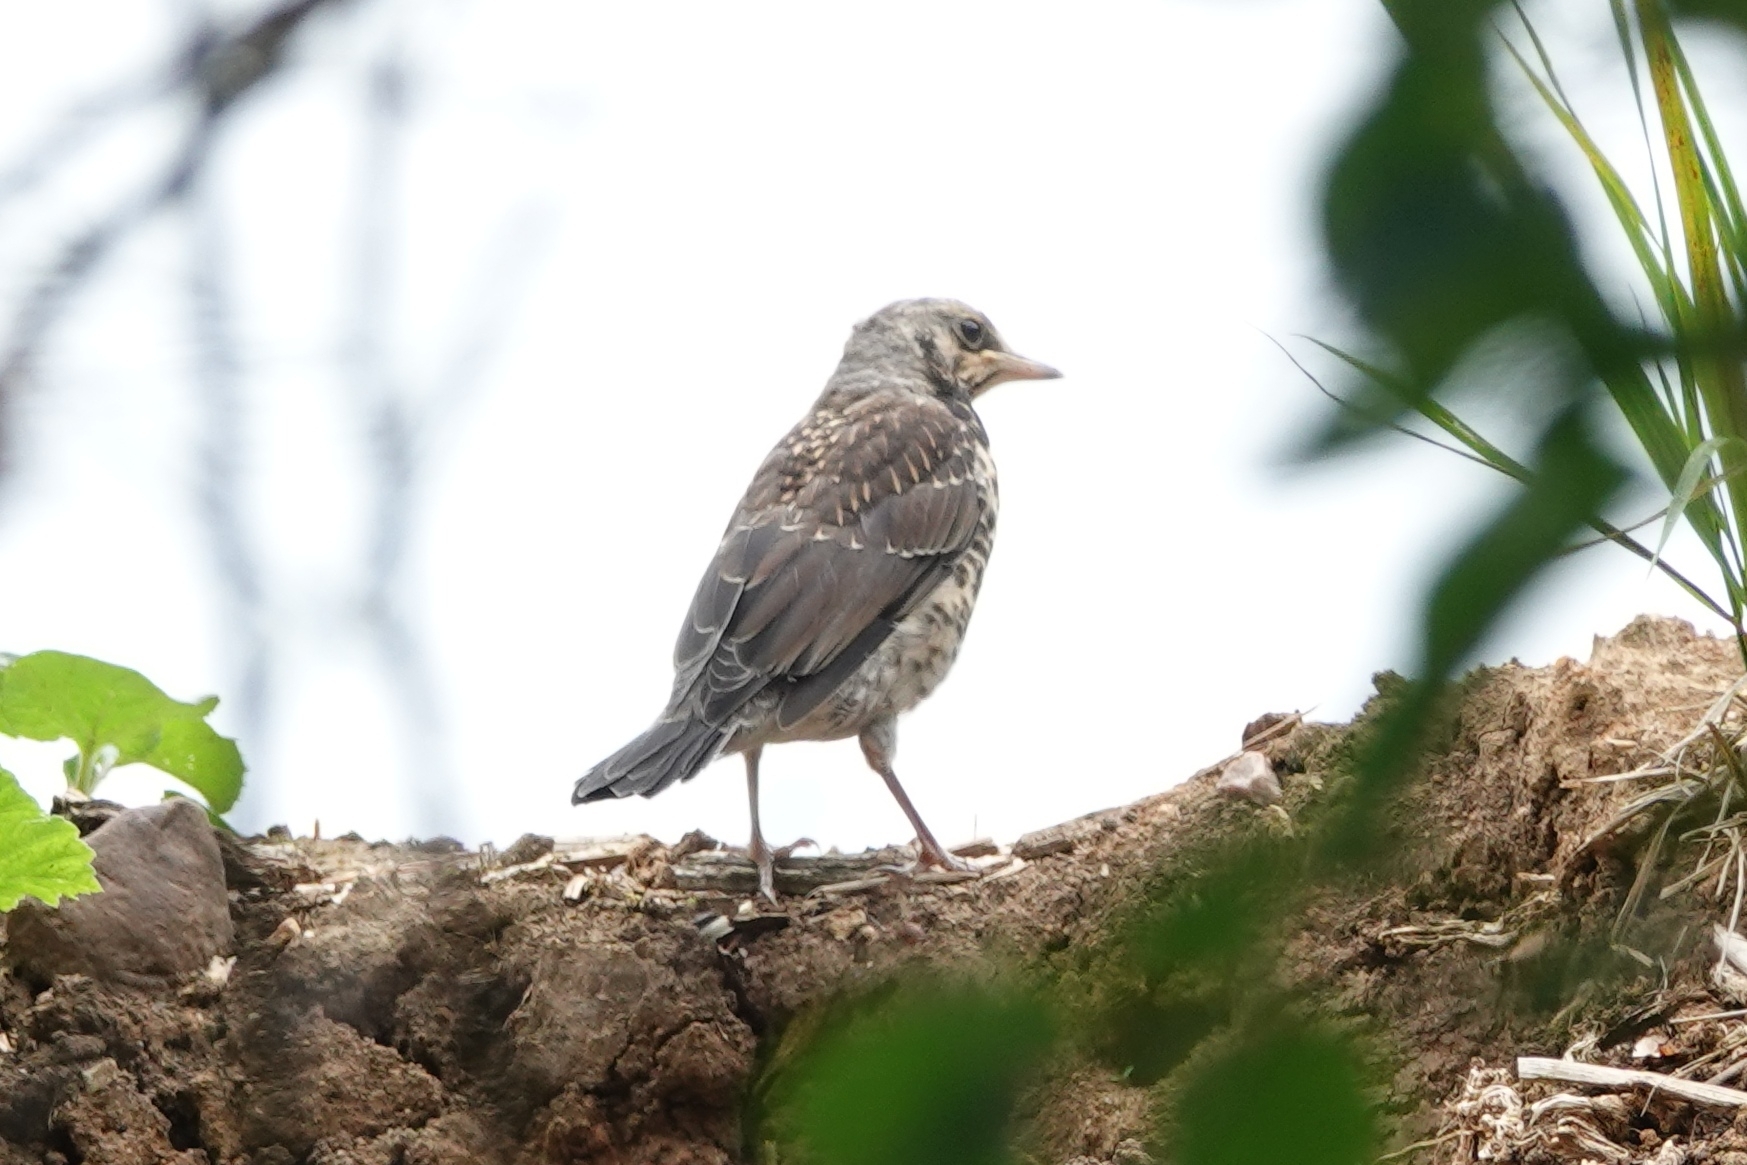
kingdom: Animalia
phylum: Chordata
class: Aves
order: Passeriformes
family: Turdidae
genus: Turdus
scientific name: Turdus pilaris
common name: Fieldfare
